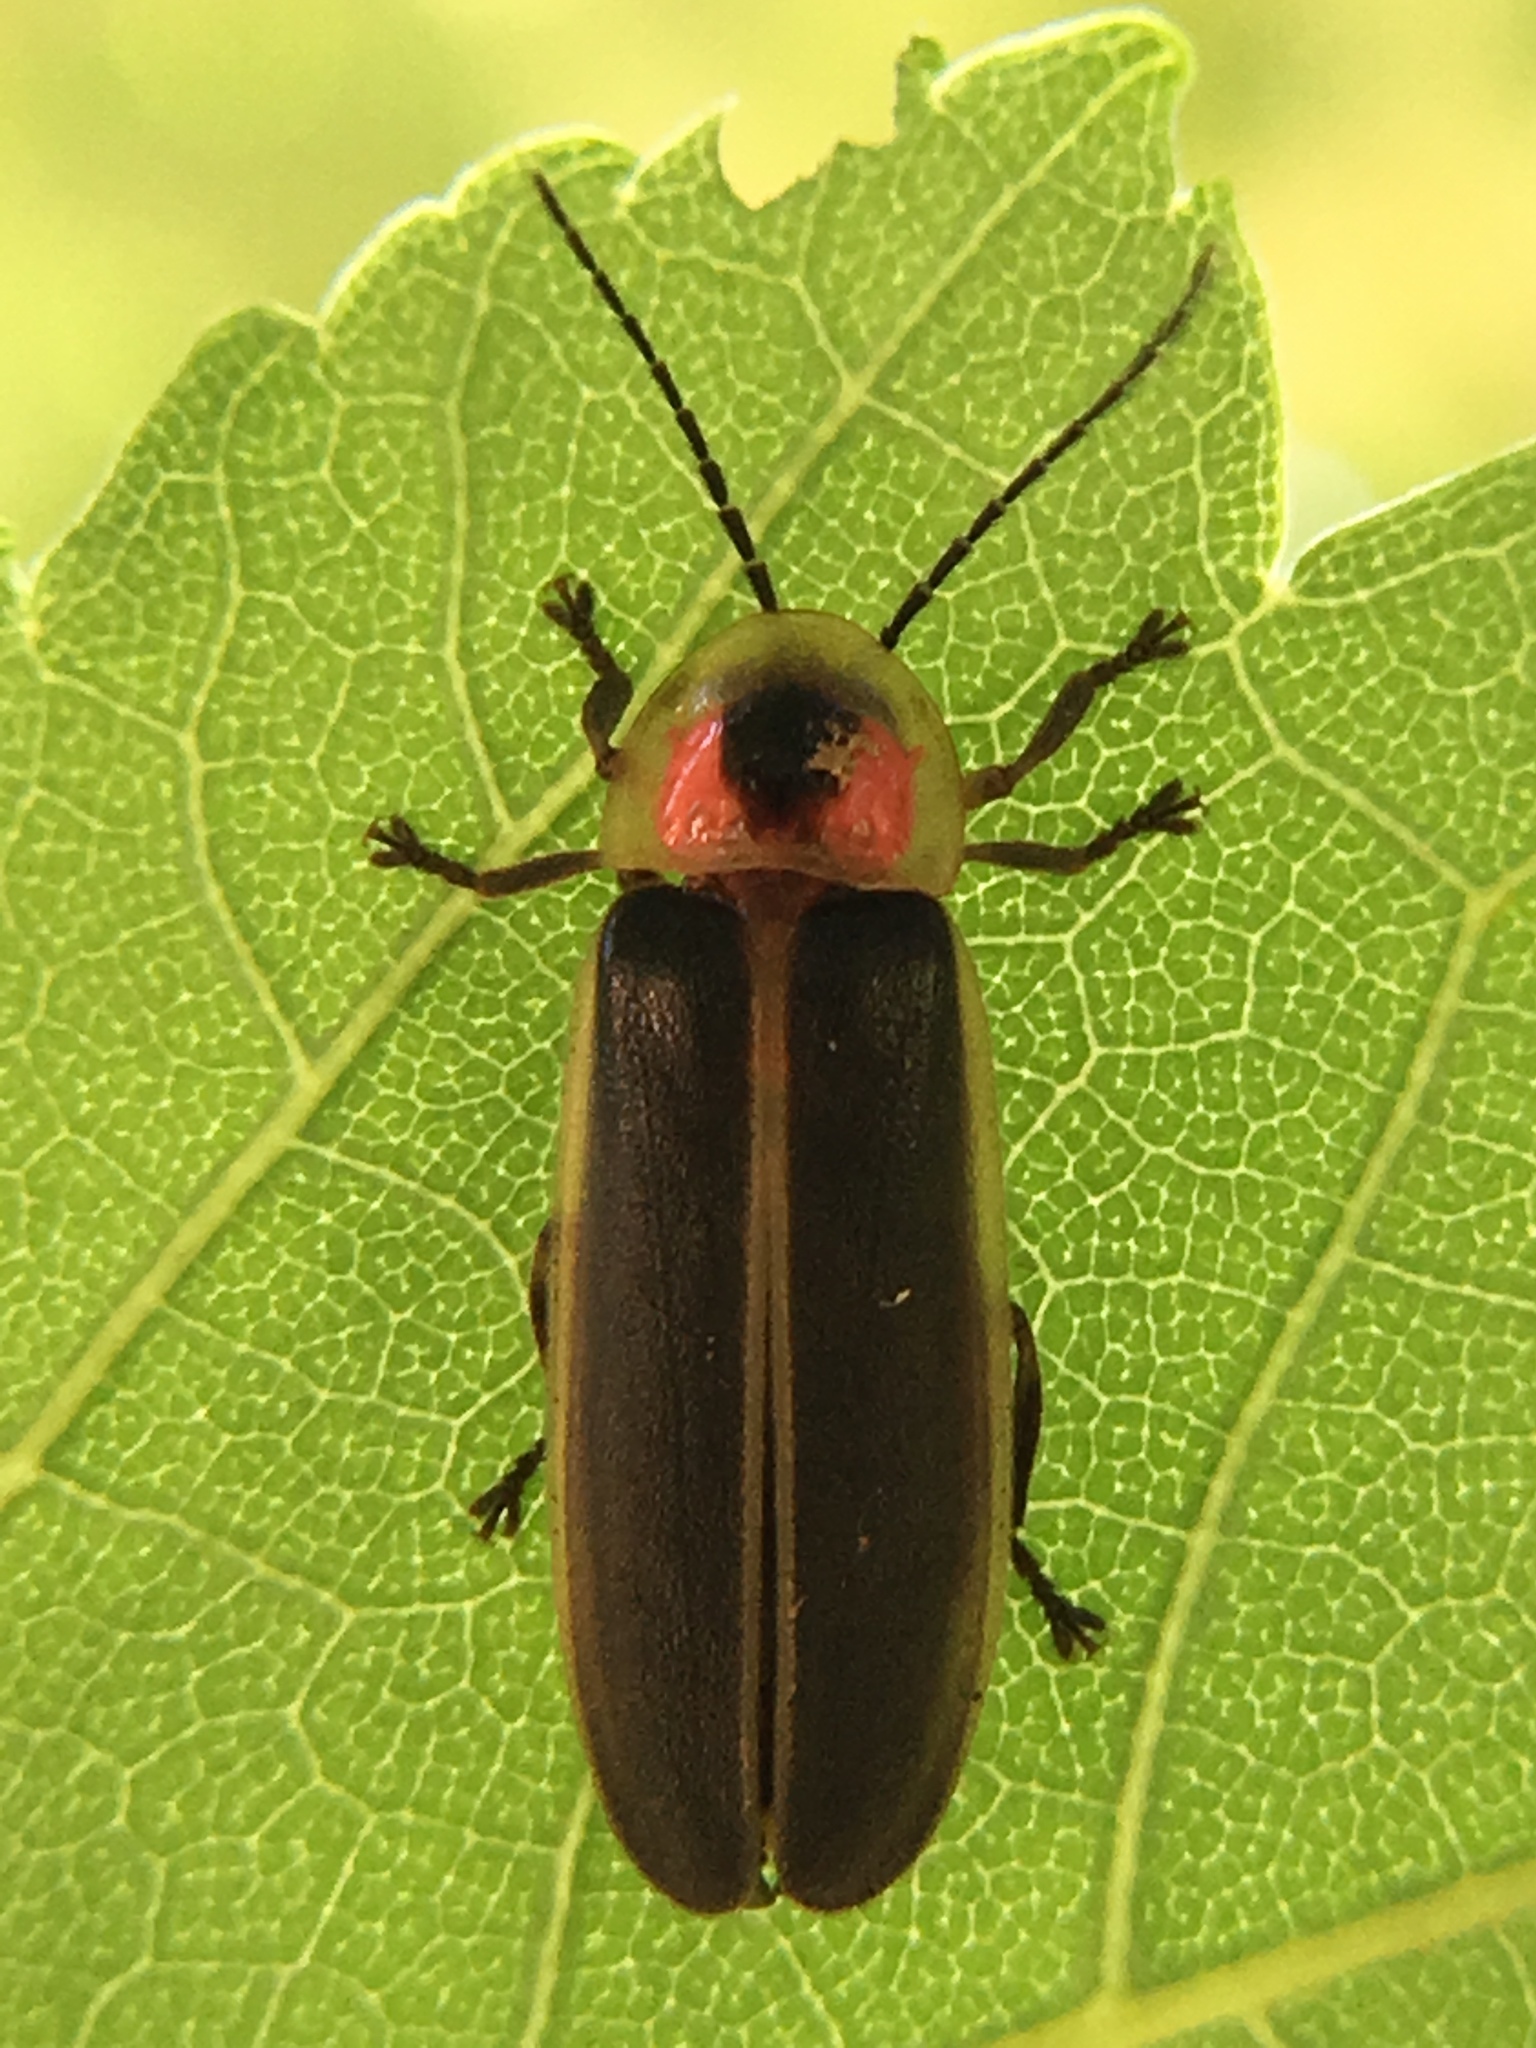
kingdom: Animalia
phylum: Arthropoda
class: Insecta
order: Coleoptera
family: Lampyridae
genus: Photinus
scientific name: Photinus pyralis
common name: Big dipper firefly
